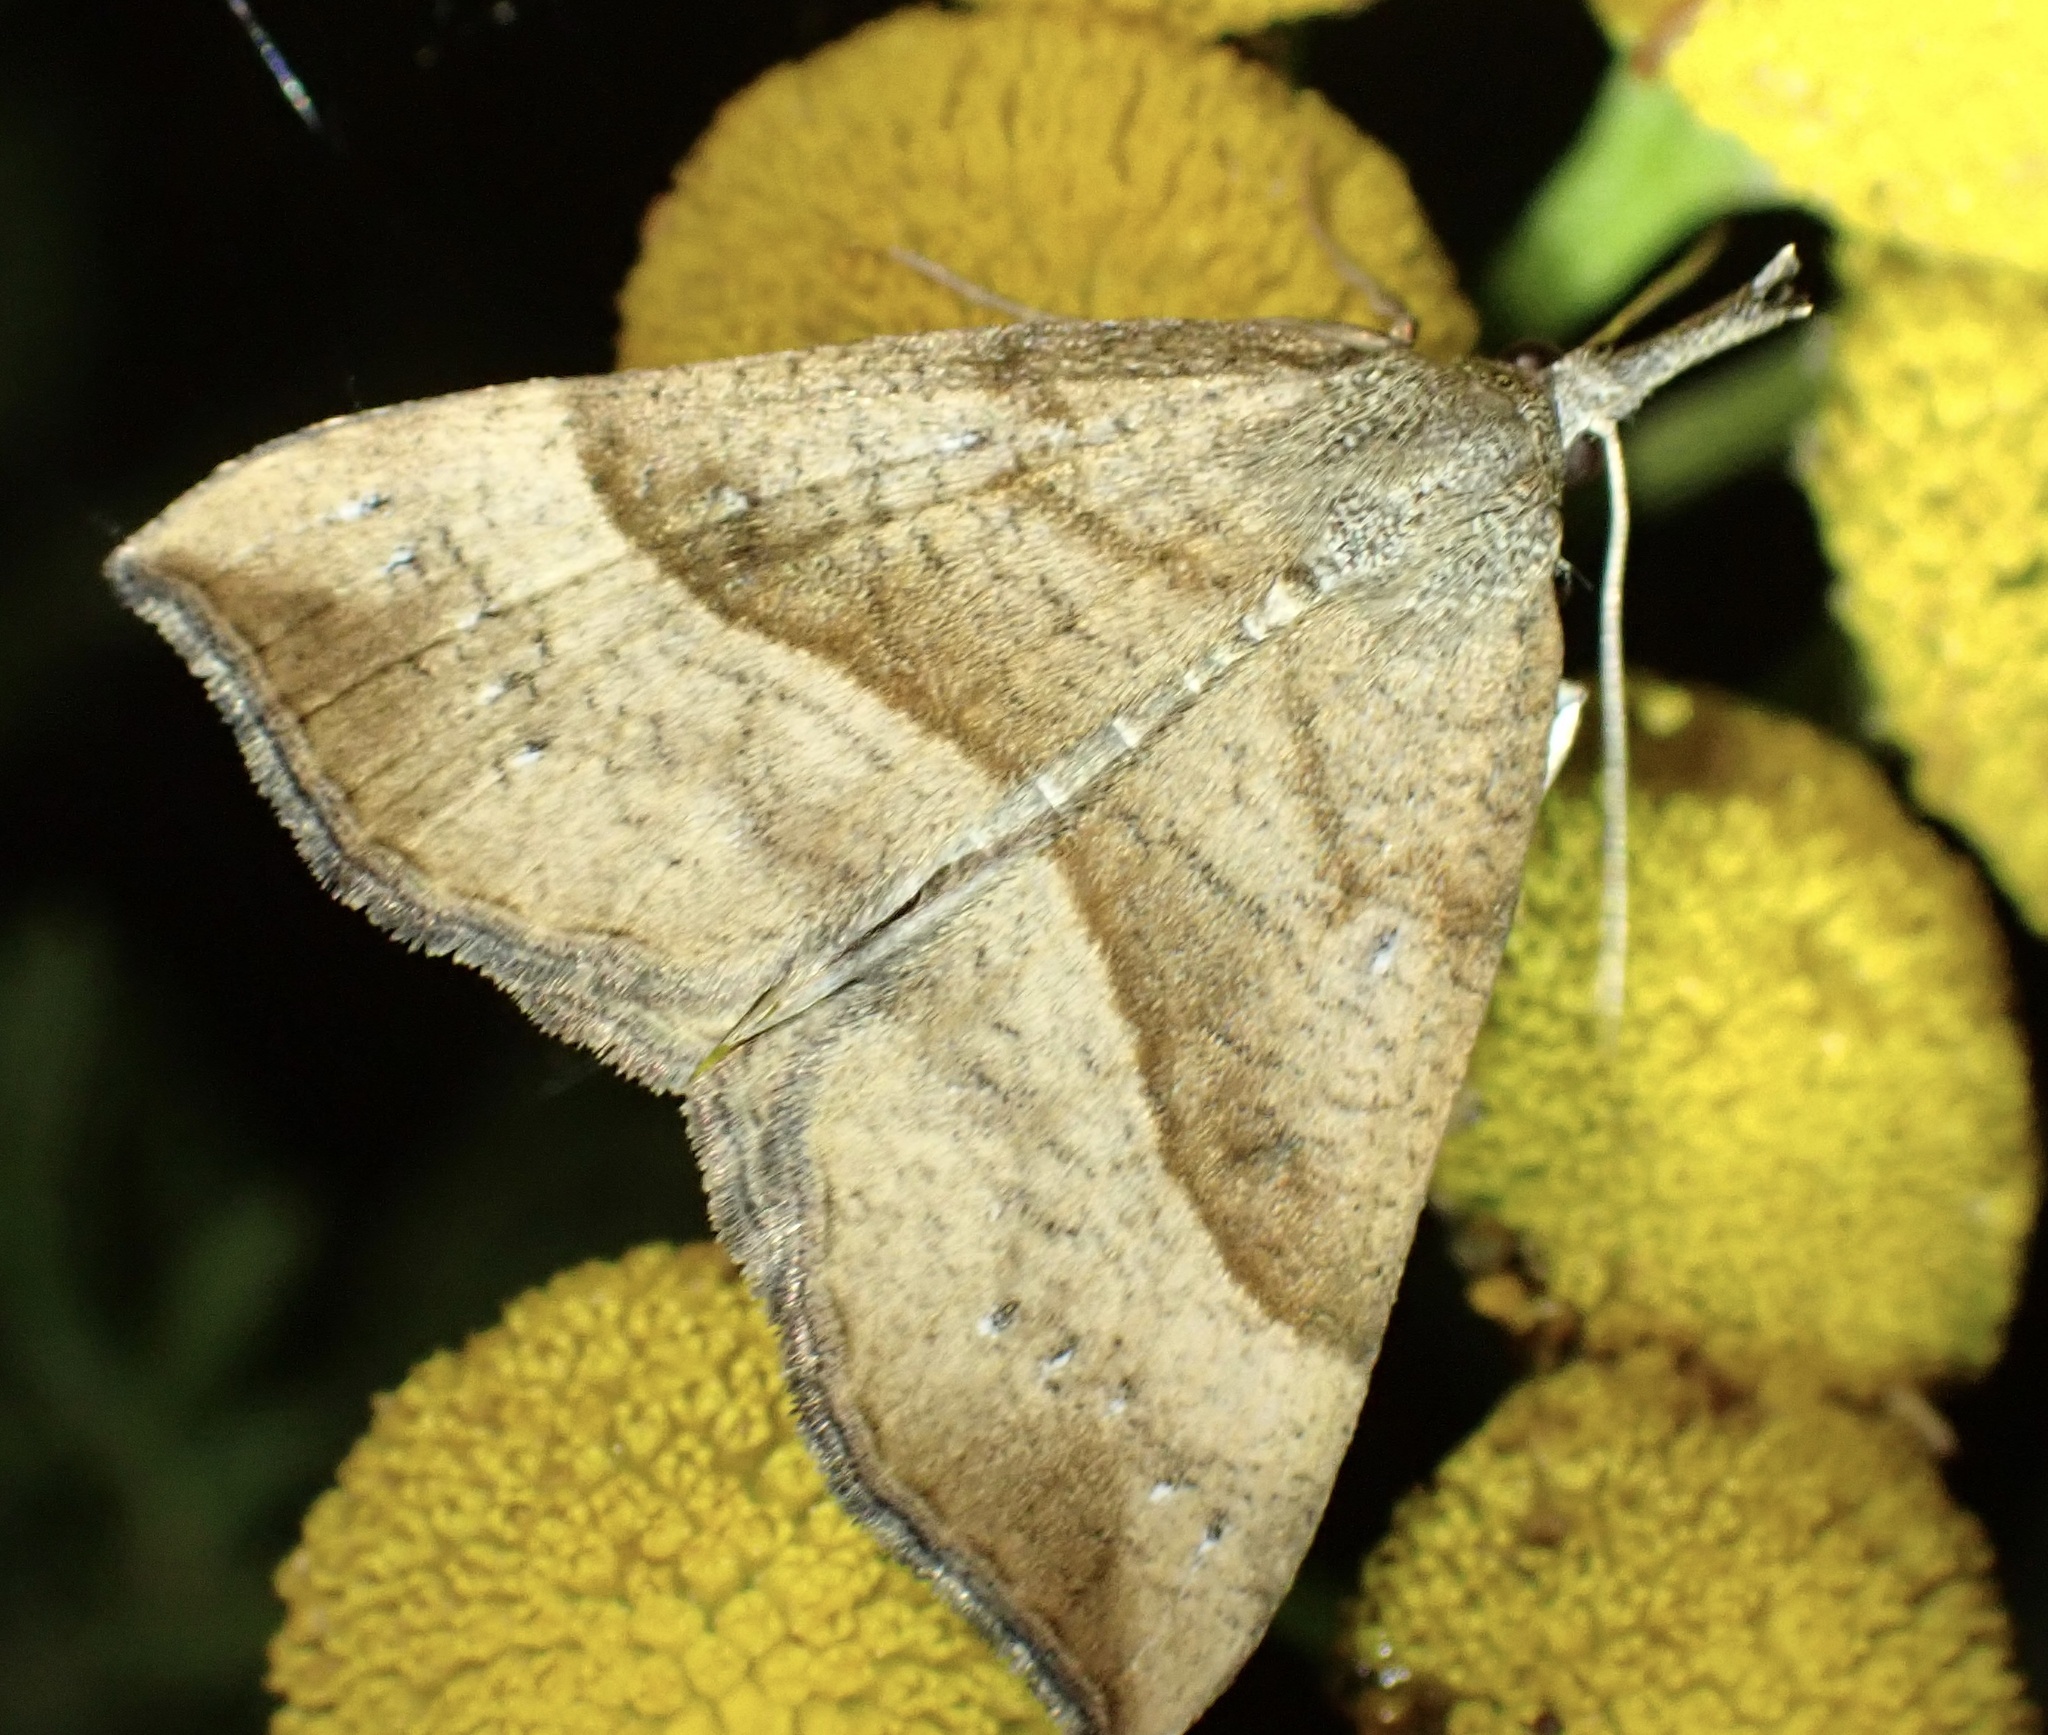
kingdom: Animalia
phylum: Arthropoda
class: Insecta
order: Lepidoptera
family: Erebidae
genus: Hypena
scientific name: Hypena proboscidalis
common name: Snout
